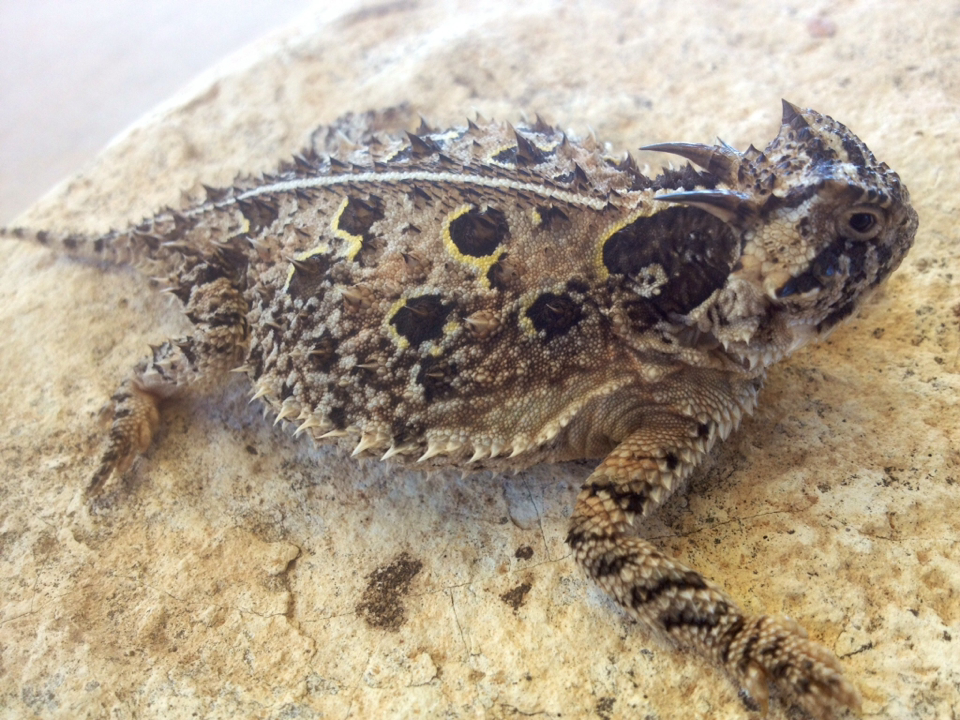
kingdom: Animalia
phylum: Chordata
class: Squamata
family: Phrynosomatidae
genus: Phrynosoma
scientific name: Phrynosoma cornutum
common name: Texas horned lizard
